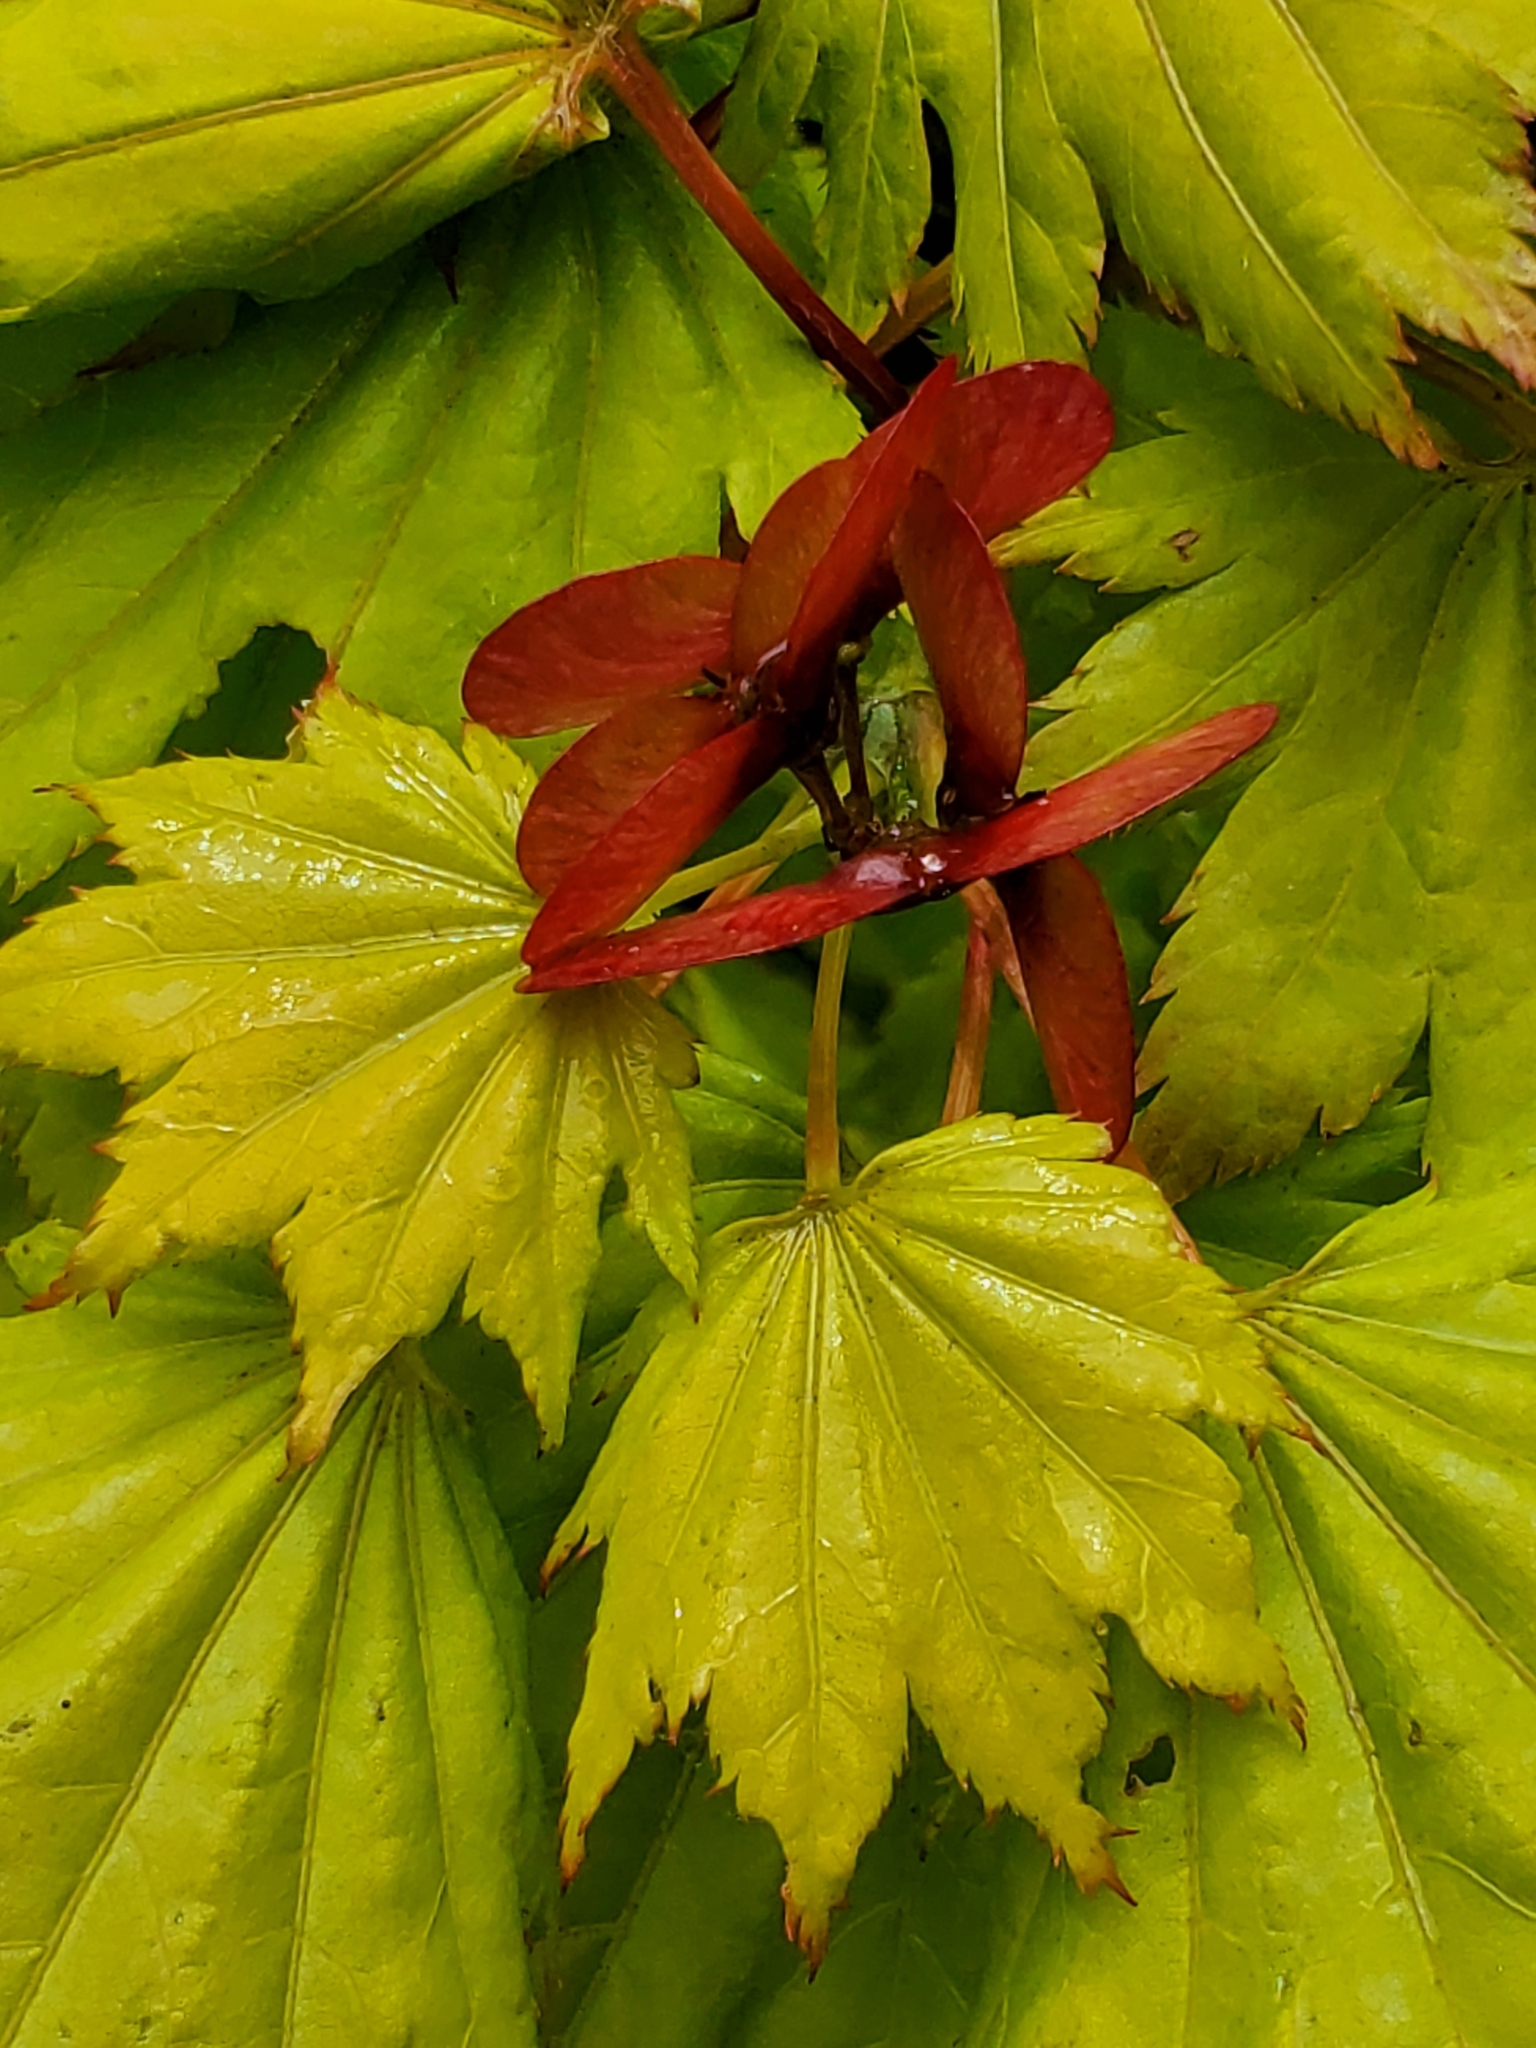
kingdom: Plantae
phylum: Tracheophyta
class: Magnoliopsida
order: Sapindales
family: Sapindaceae
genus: Acer
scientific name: Acer circinatum
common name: Vine maple
